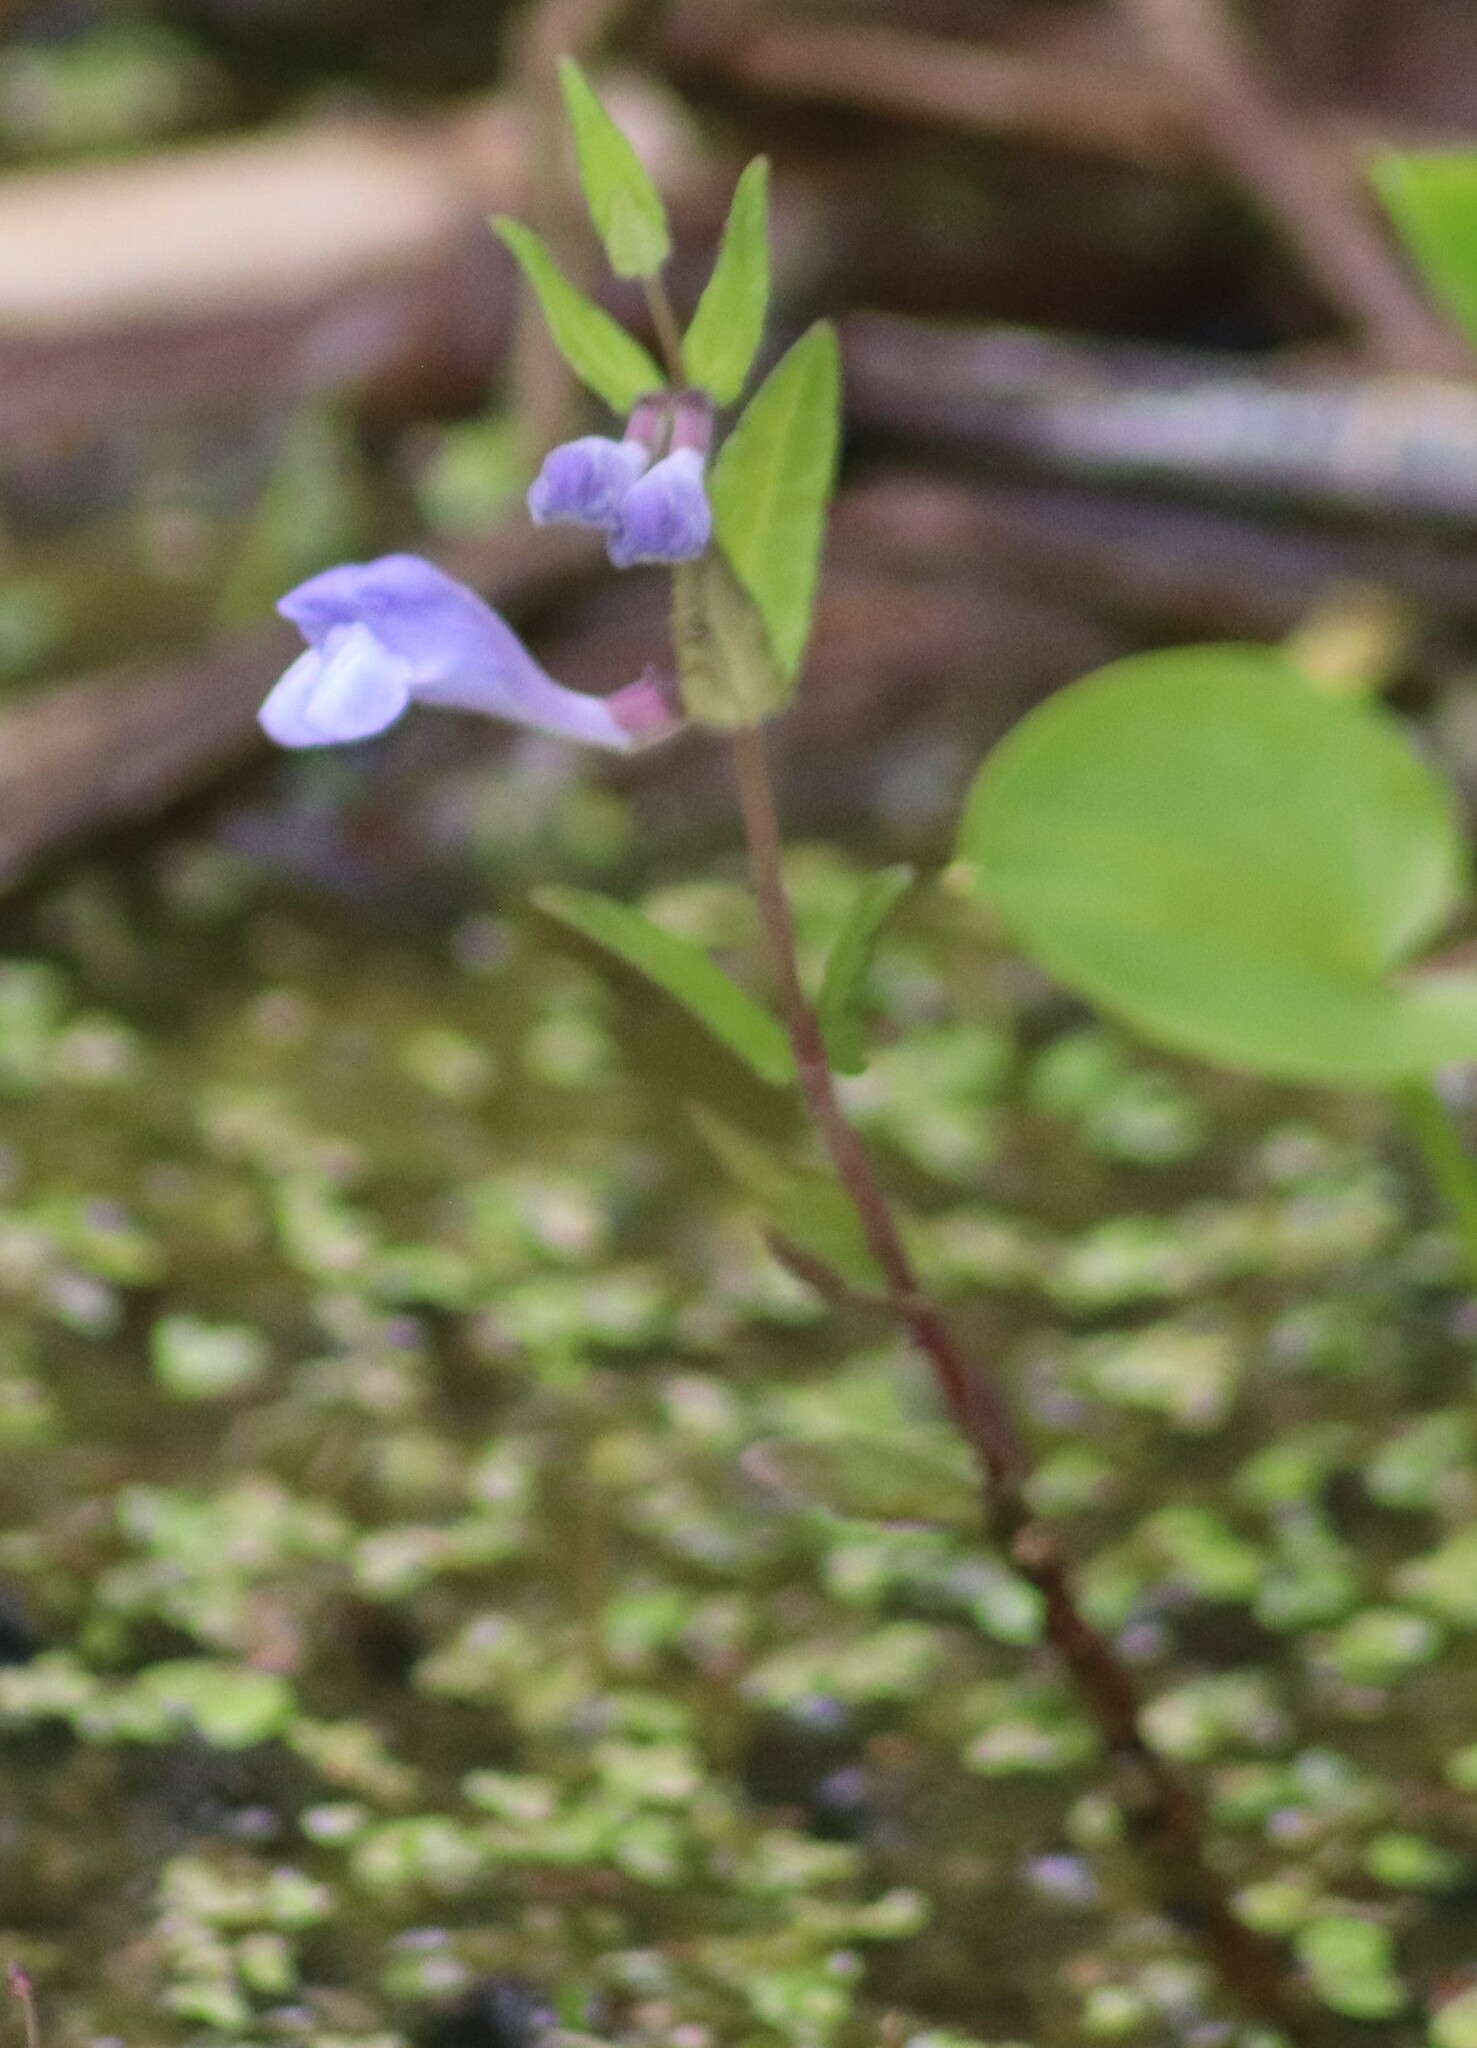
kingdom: Plantae
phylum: Tracheophyta
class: Magnoliopsida
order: Lamiales
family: Lamiaceae
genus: Scutellaria
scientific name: Scutellaria galericulata
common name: Skullcap
